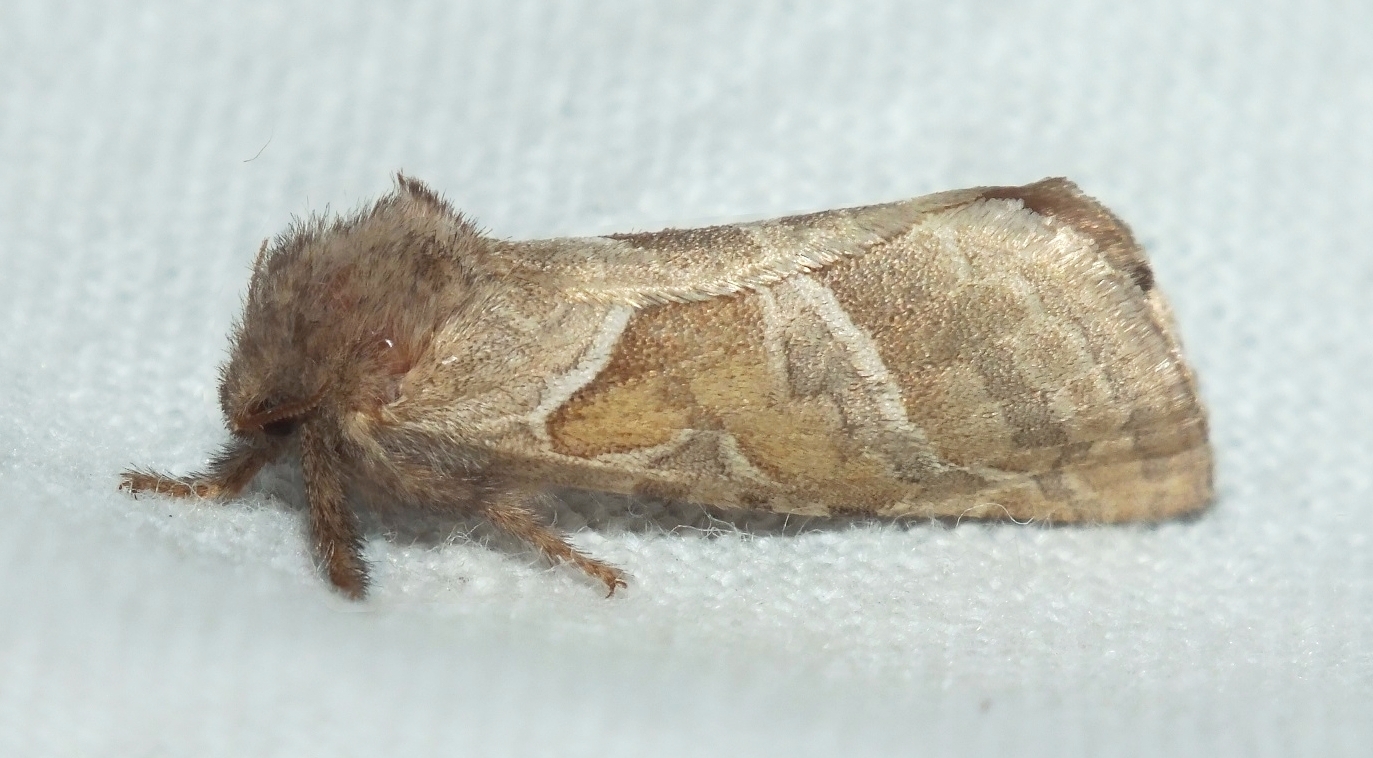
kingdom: Animalia
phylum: Arthropoda
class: Insecta
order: Lepidoptera
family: Hepialidae
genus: Triodia
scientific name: Triodia sylvina
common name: Orange swift
